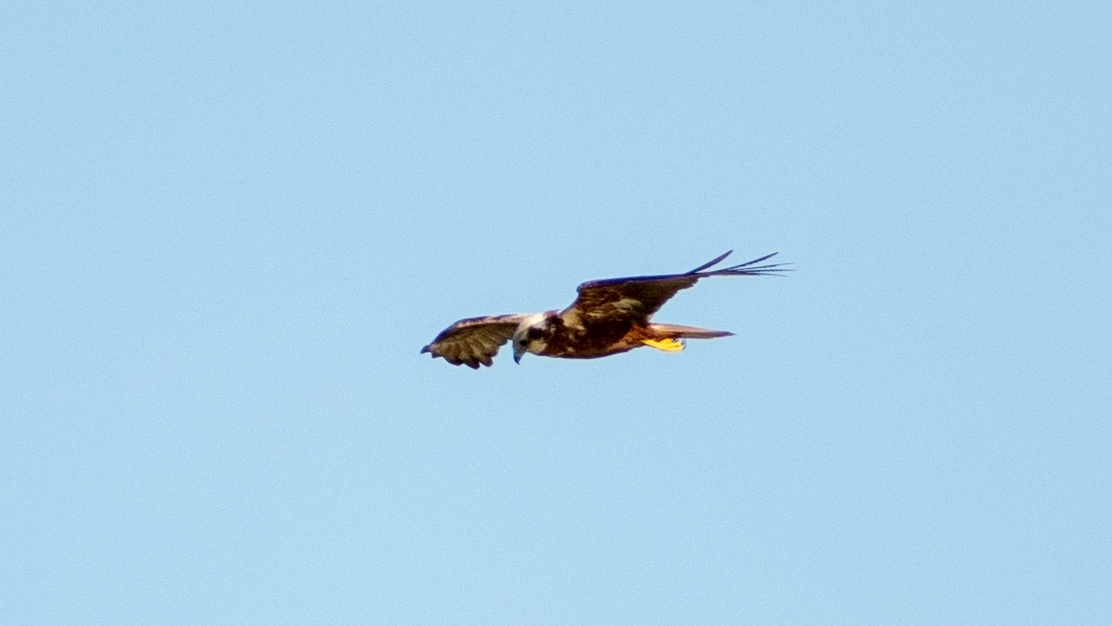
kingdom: Animalia
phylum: Chordata
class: Aves
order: Accipitriformes
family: Accipitridae
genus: Circus
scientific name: Circus aeruginosus
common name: Western marsh harrier
